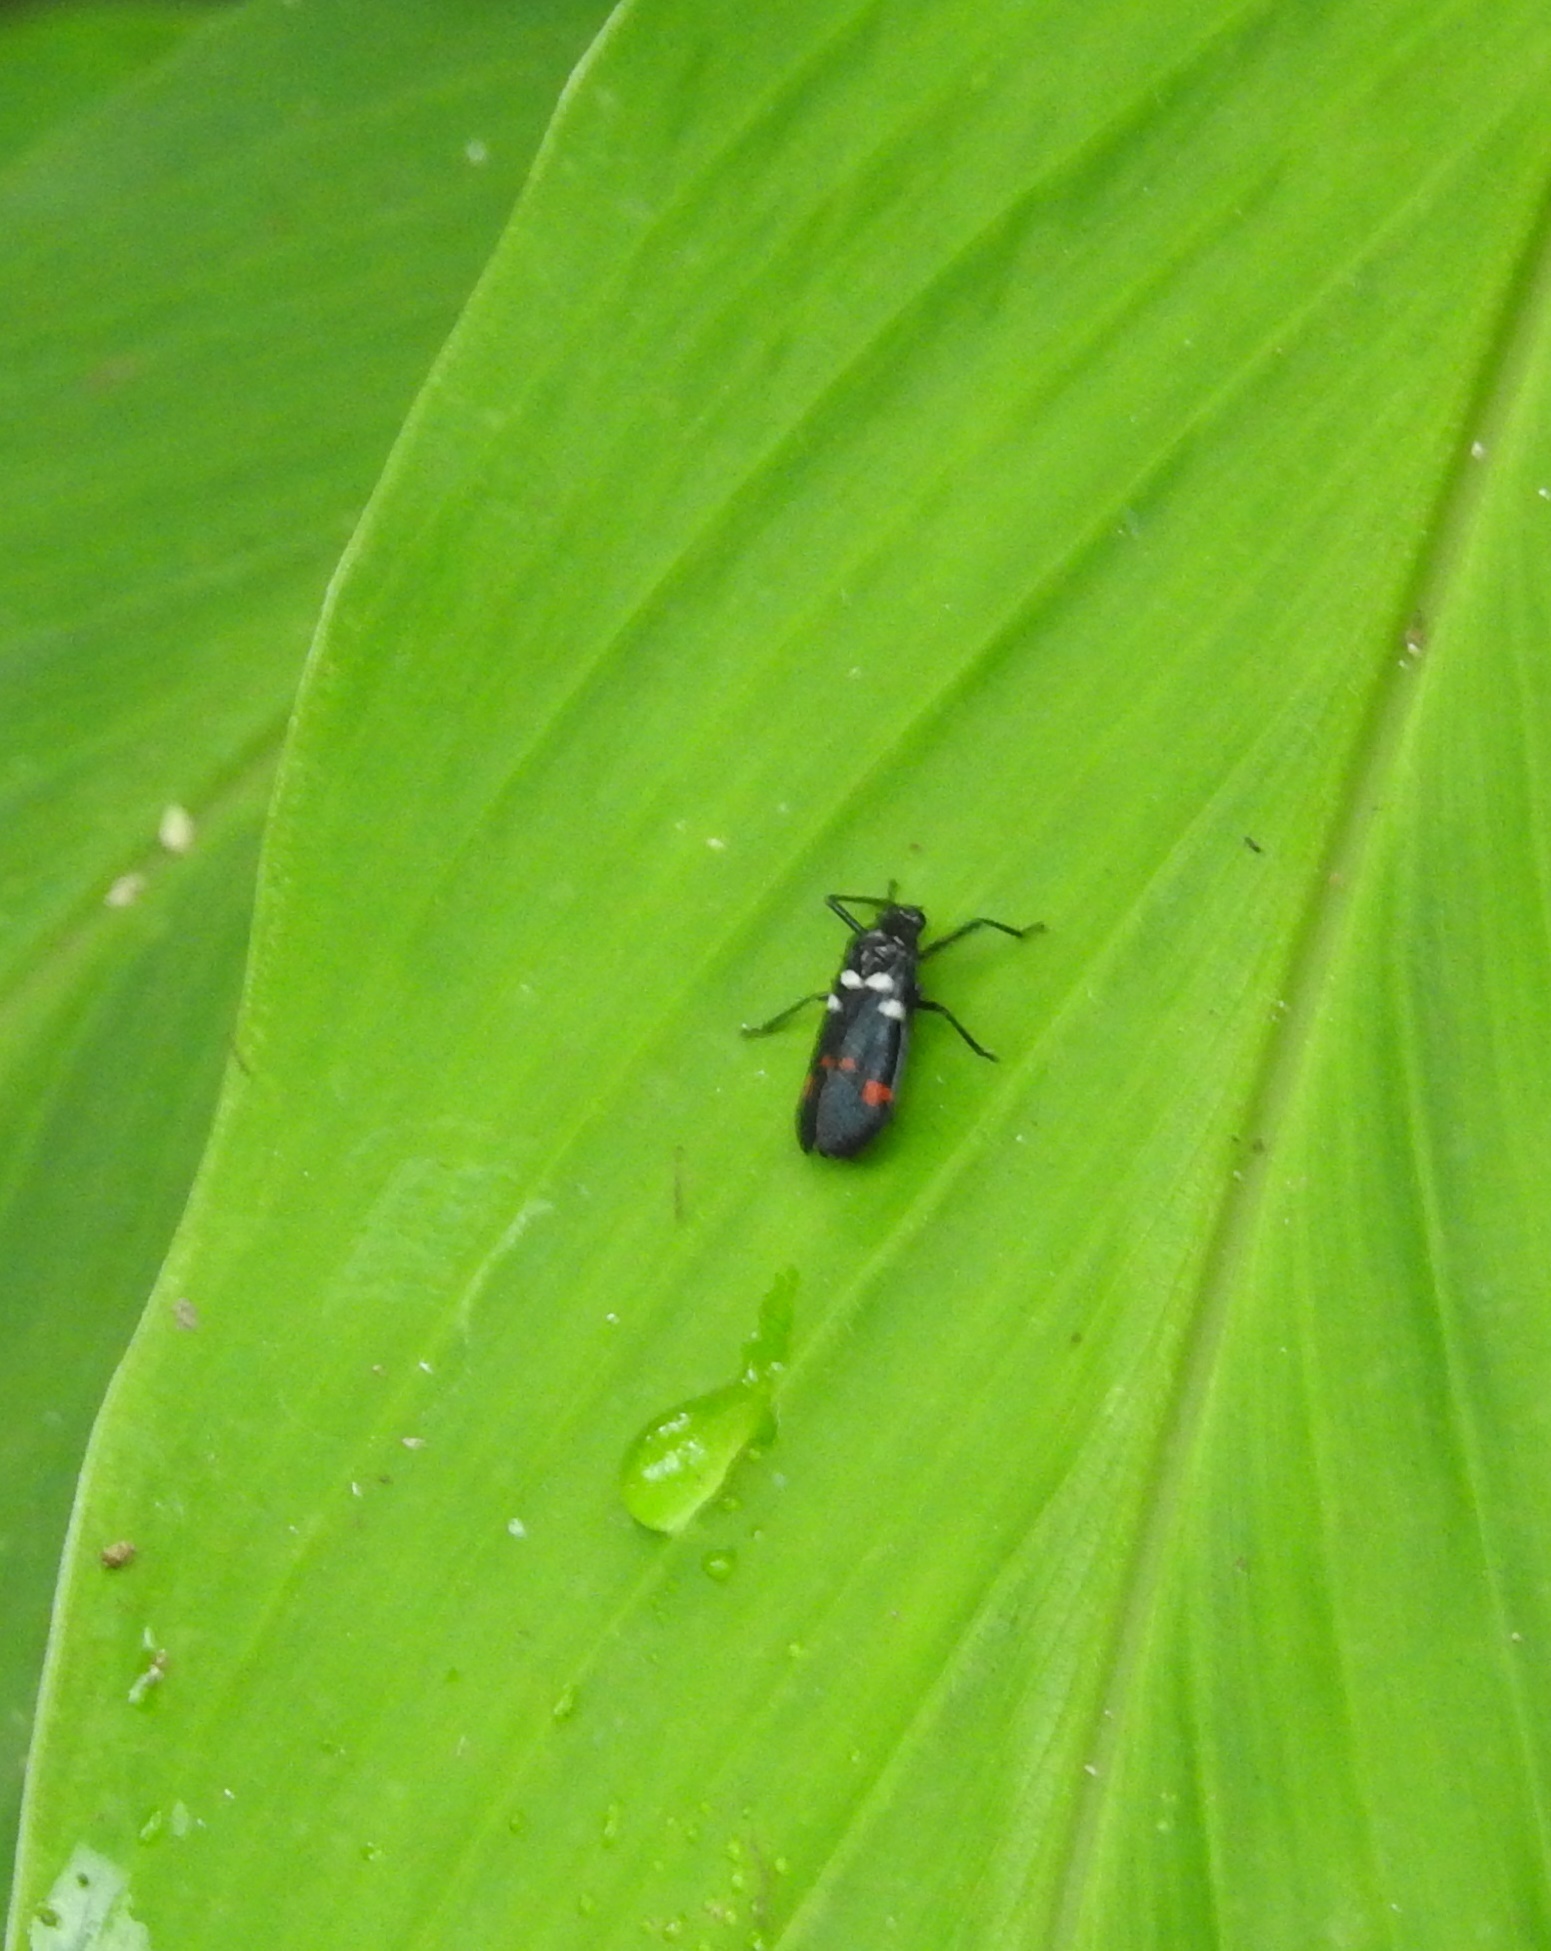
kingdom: Animalia
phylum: Arthropoda
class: Insecta
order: Hemiptera
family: Cercopidae
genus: Callitettix
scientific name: Callitettix versicolor
